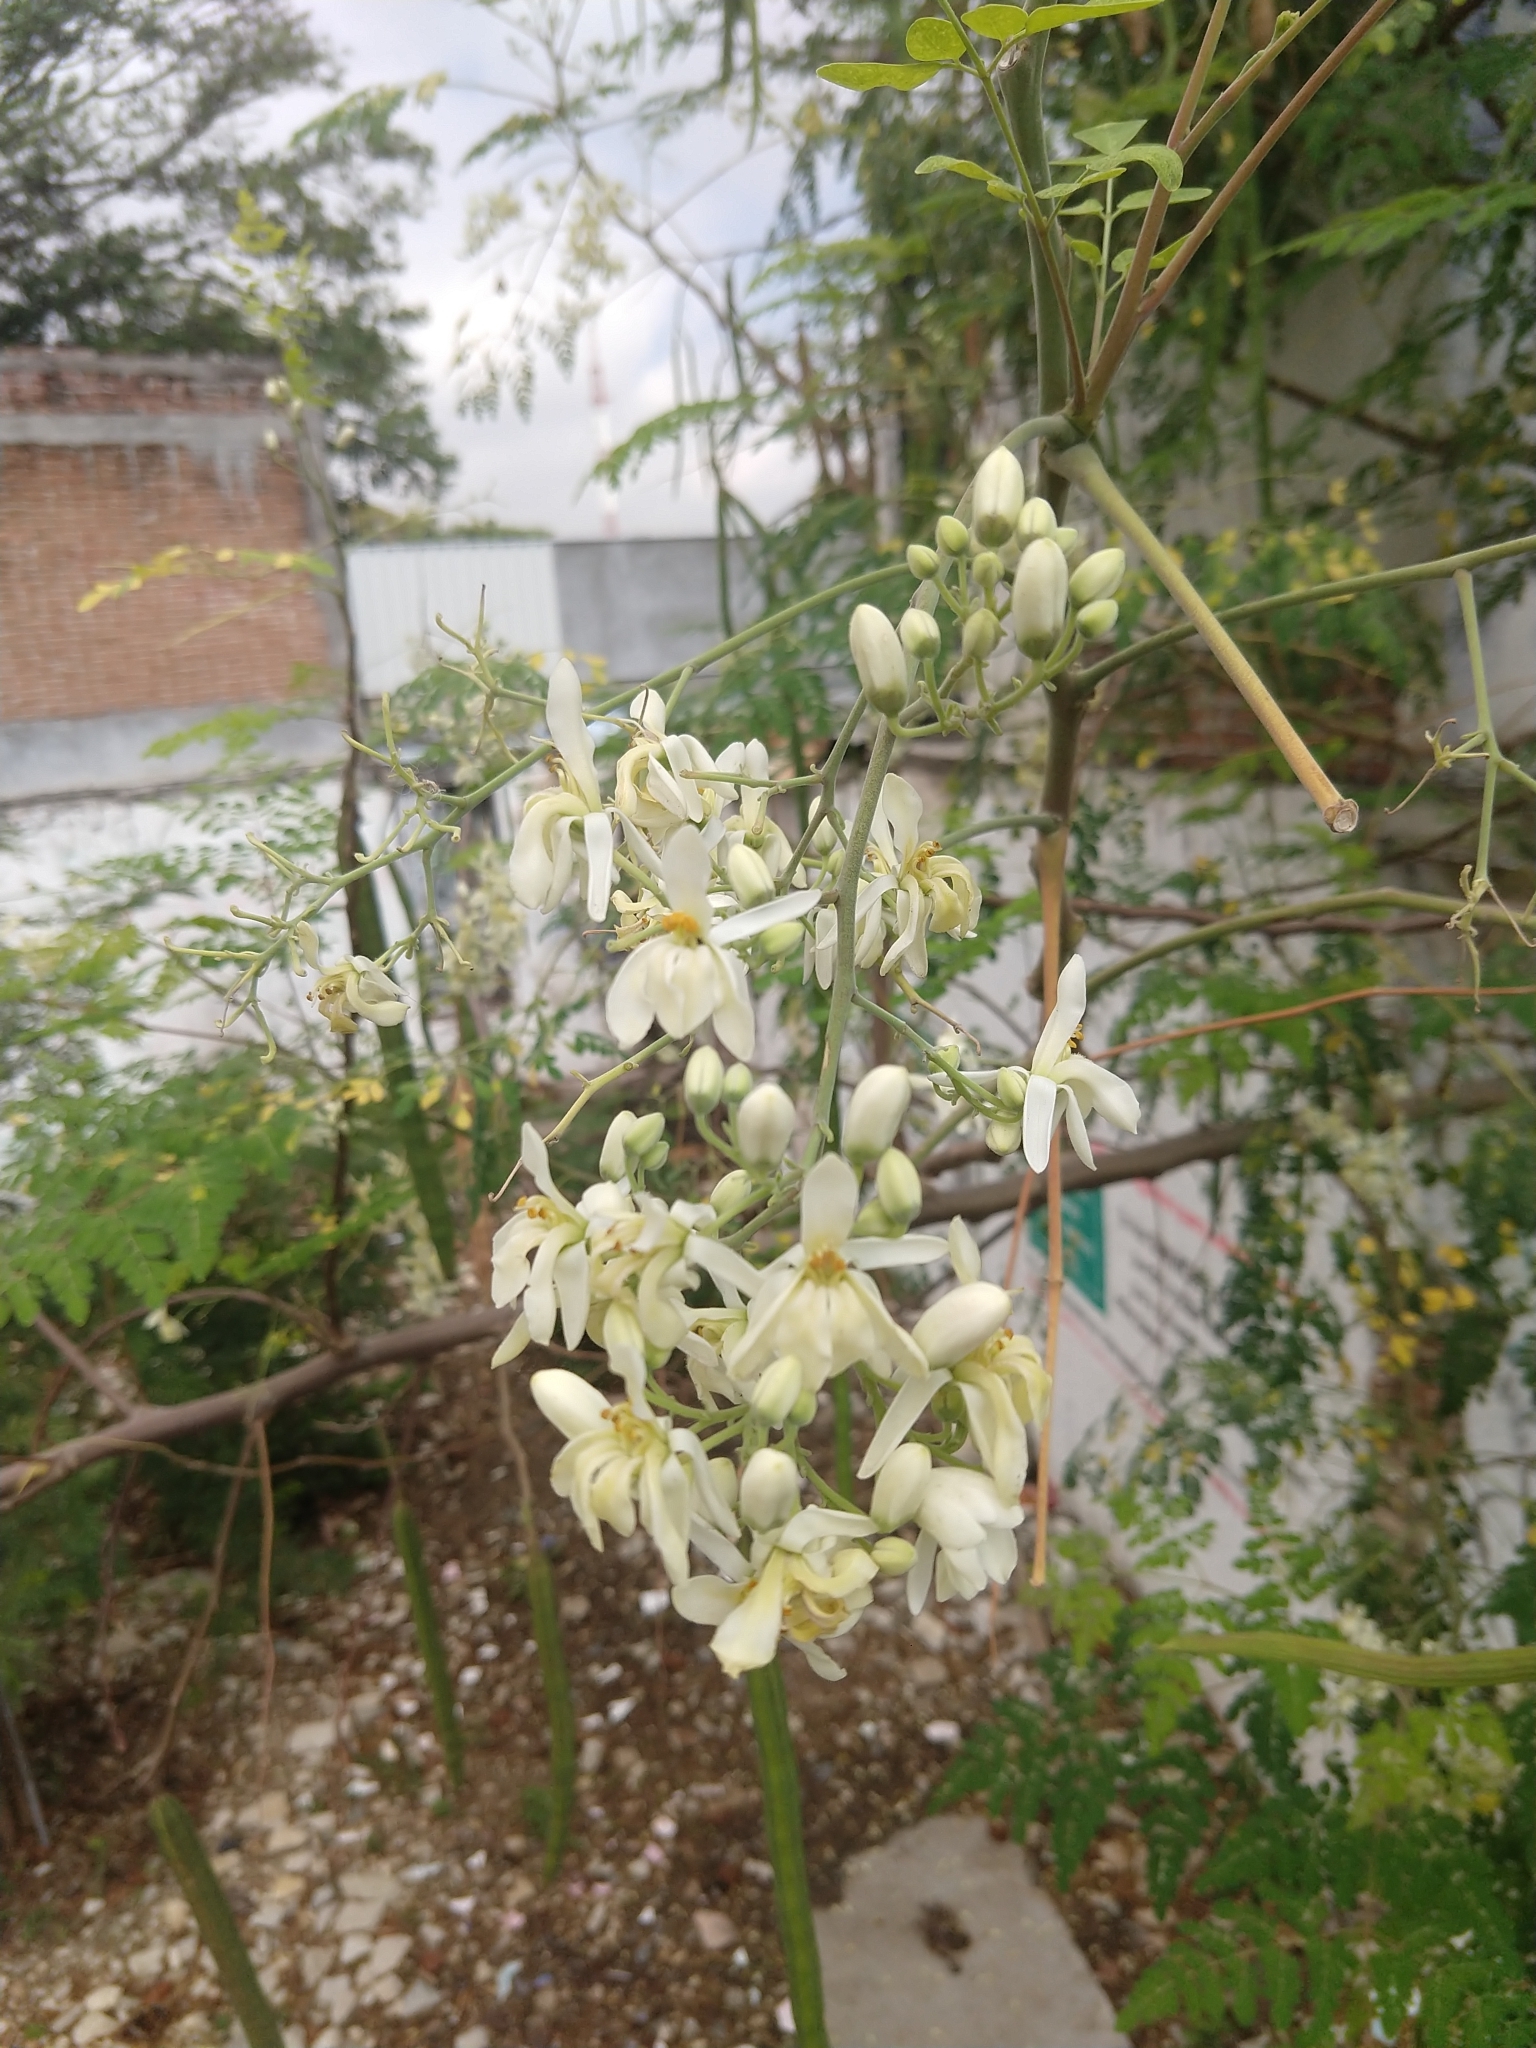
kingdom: Plantae
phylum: Tracheophyta
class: Magnoliopsida
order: Brassicales
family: Moringaceae
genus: Moringa
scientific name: Moringa oleifera
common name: Horseradish-tree
